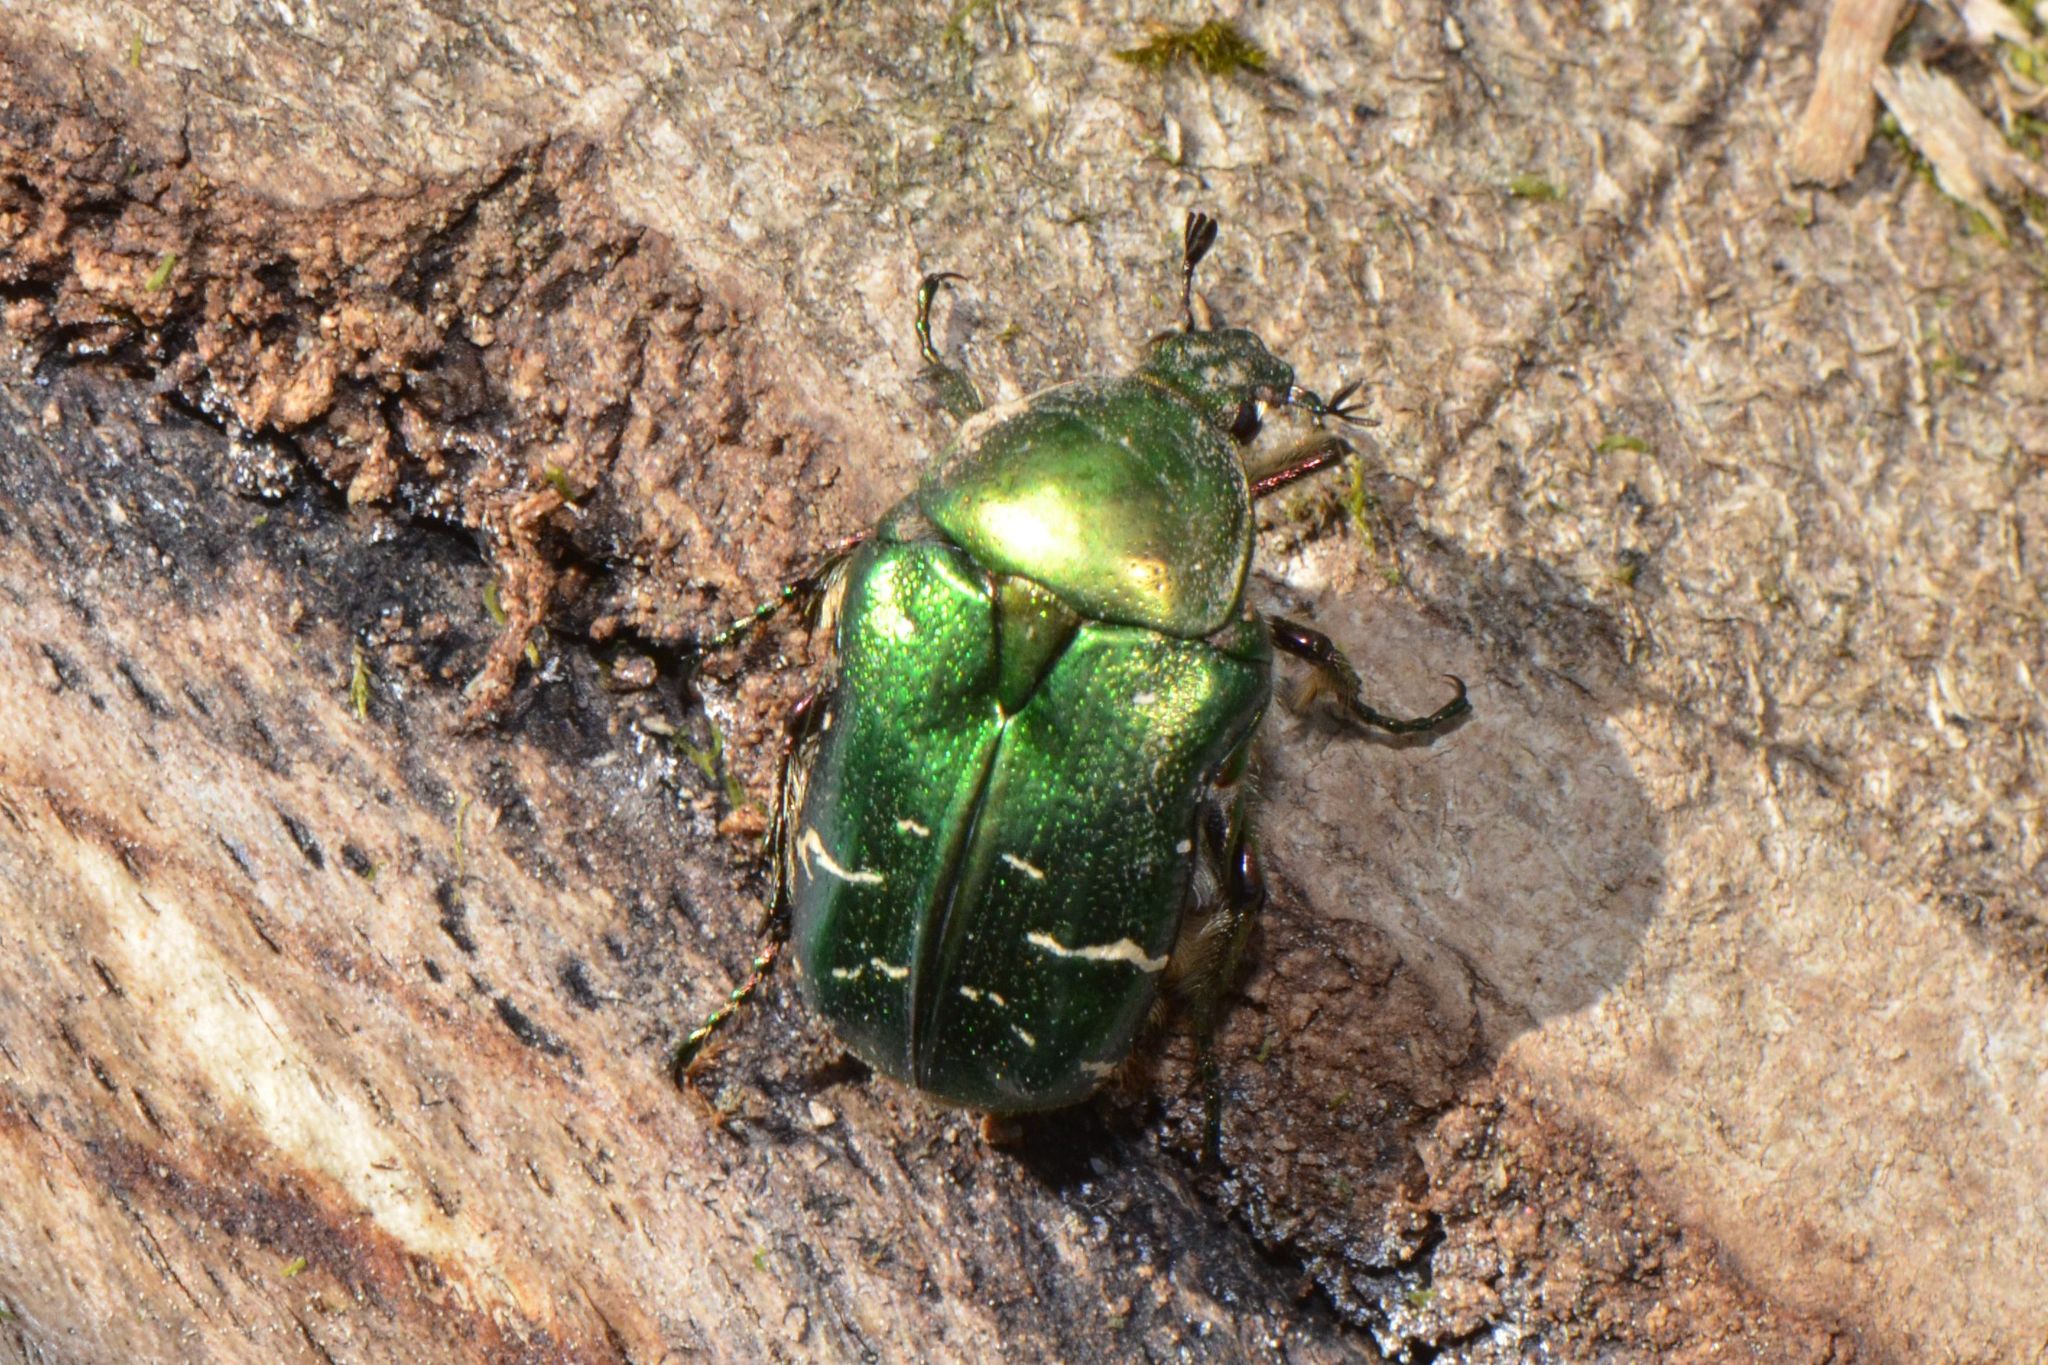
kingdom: Animalia
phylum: Arthropoda
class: Insecta
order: Coleoptera
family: Scarabaeidae
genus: Cetonia
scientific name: Cetonia aurata
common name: Rose chafer
